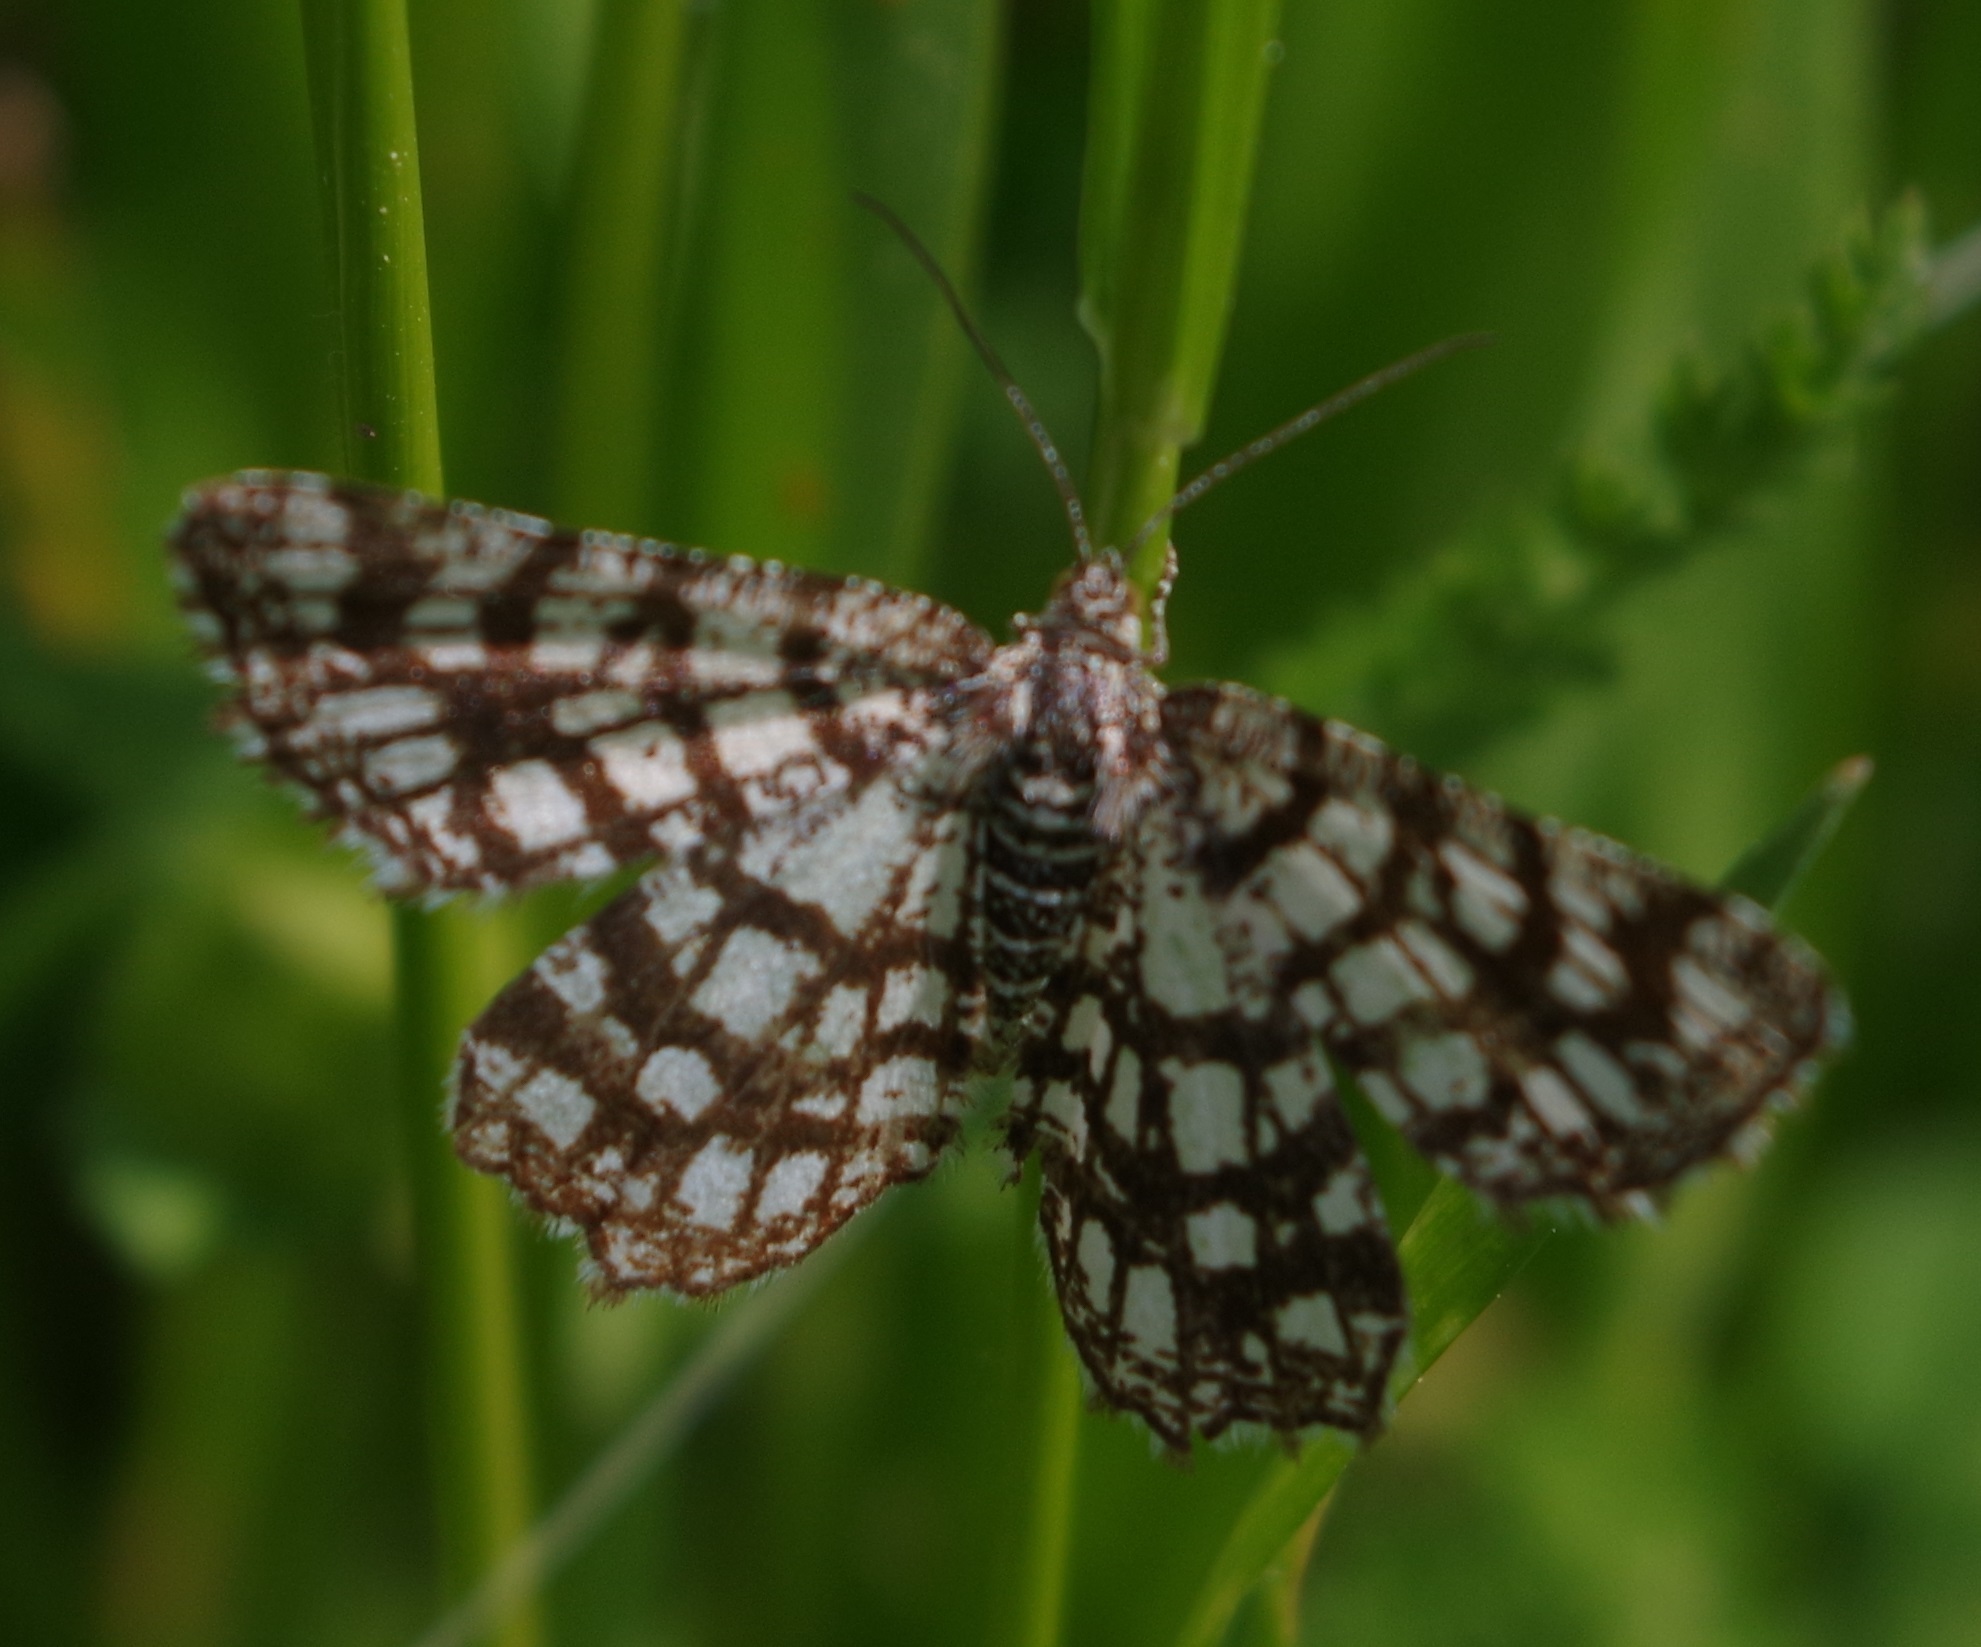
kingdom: Animalia
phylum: Arthropoda
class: Insecta
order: Lepidoptera
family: Geometridae
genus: Chiasmia
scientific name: Chiasmia clathrata
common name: Latticed heath
